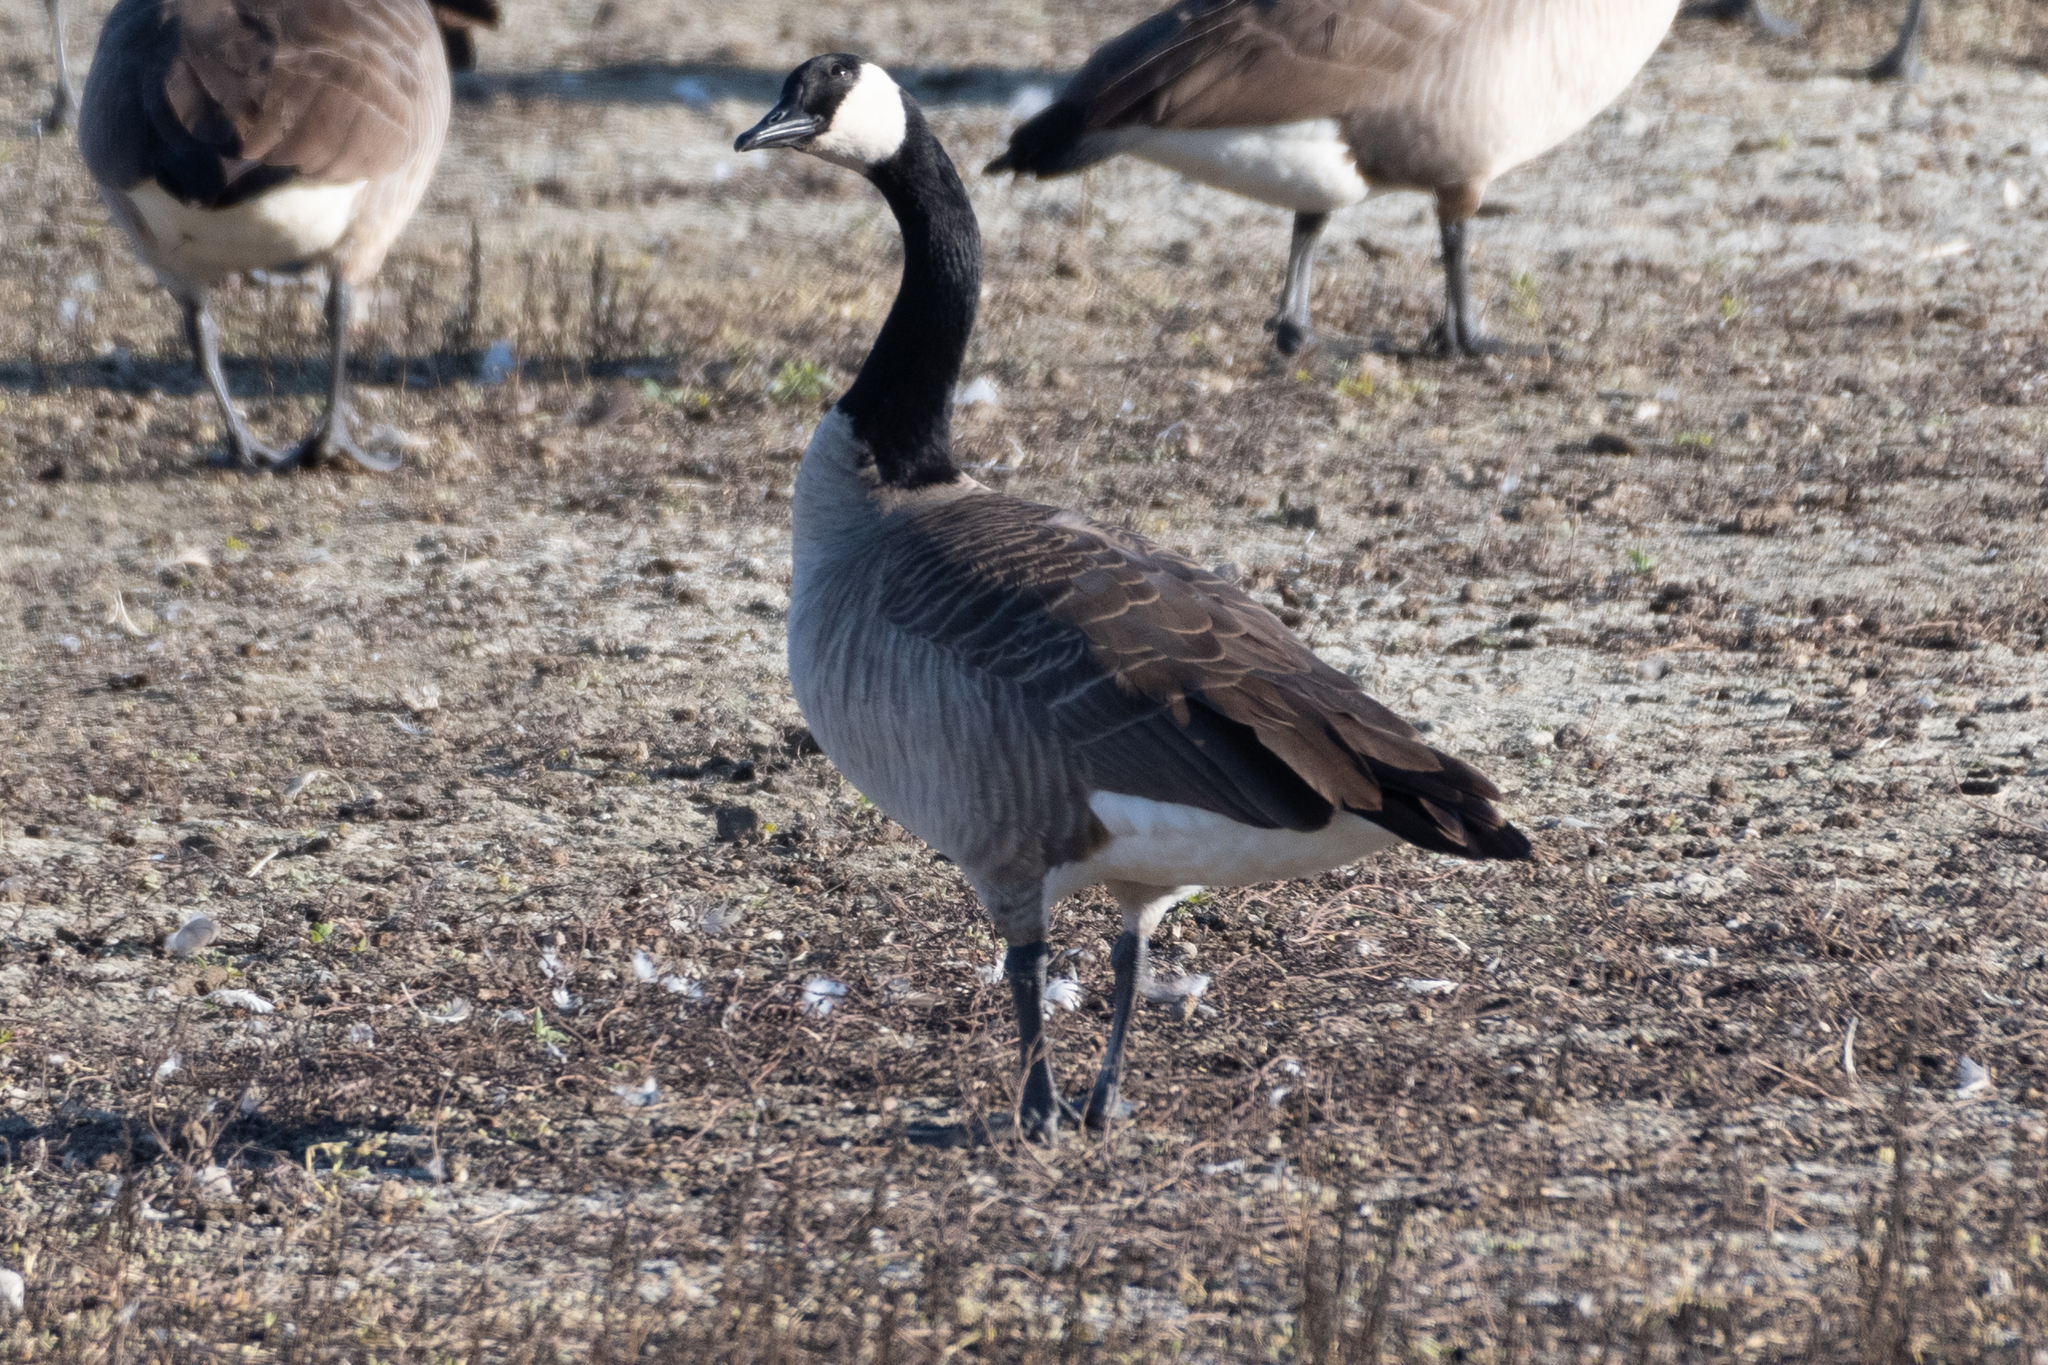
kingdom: Animalia
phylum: Chordata
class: Aves
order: Anseriformes
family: Anatidae
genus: Branta
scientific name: Branta canadensis
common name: Canada goose
